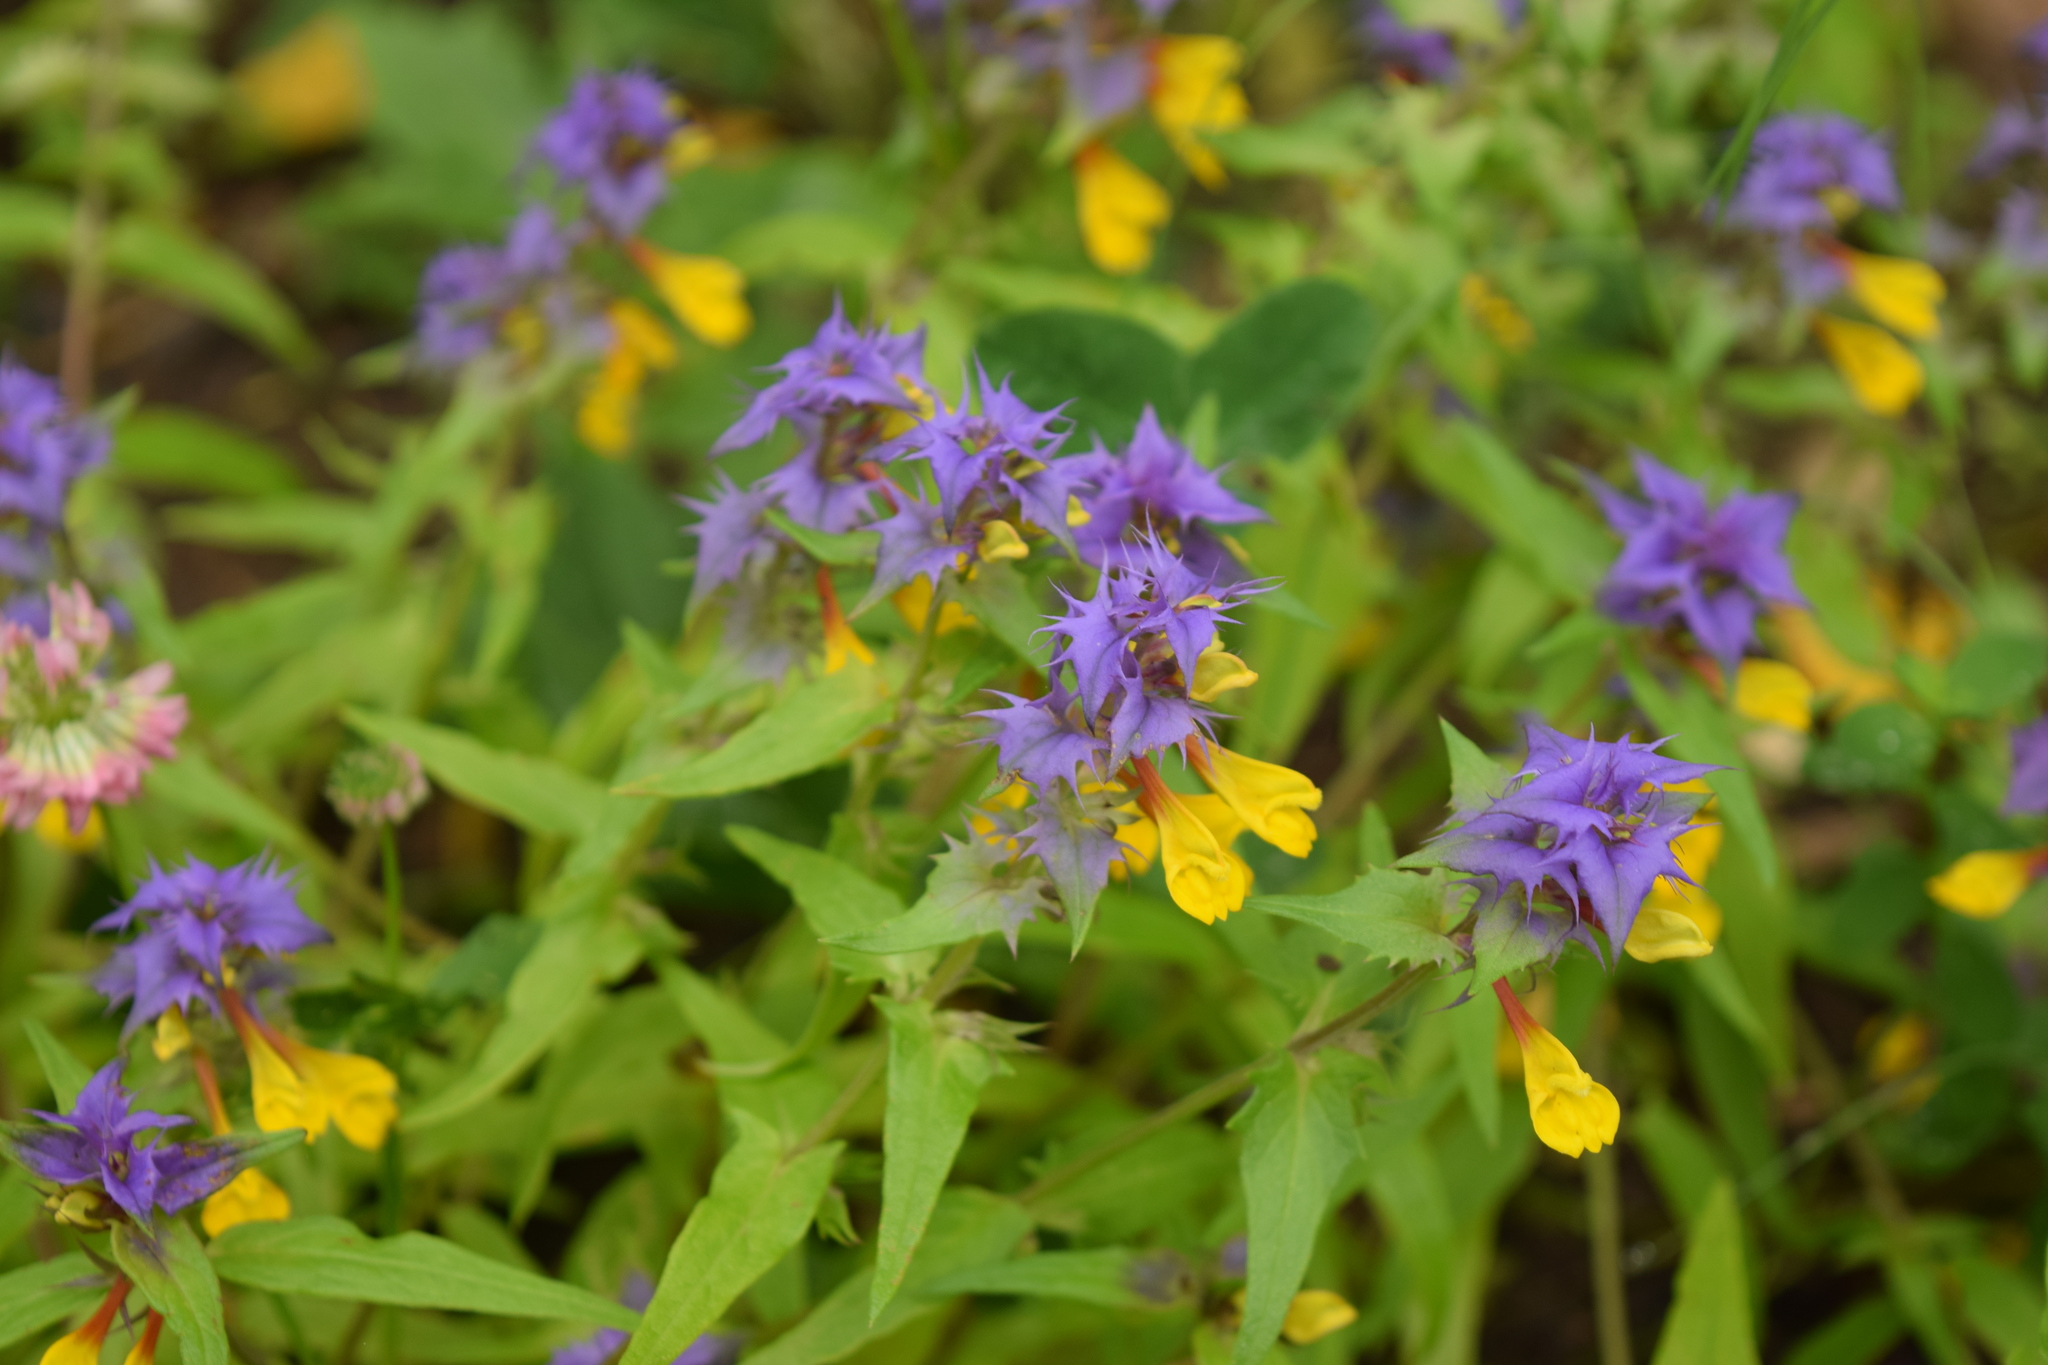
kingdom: Plantae
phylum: Tracheophyta
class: Magnoliopsida
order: Lamiales
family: Orobanchaceae
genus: Melampyrum
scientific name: Melampyrum nemorosum
